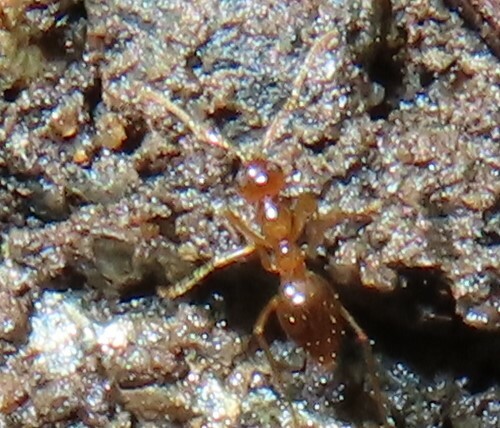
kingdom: Animalia
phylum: Arthropoda
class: Insecta
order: Hymenoptera
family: Formicidae
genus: Prenolepis
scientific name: Prenolepis imparis
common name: Small honey ant
